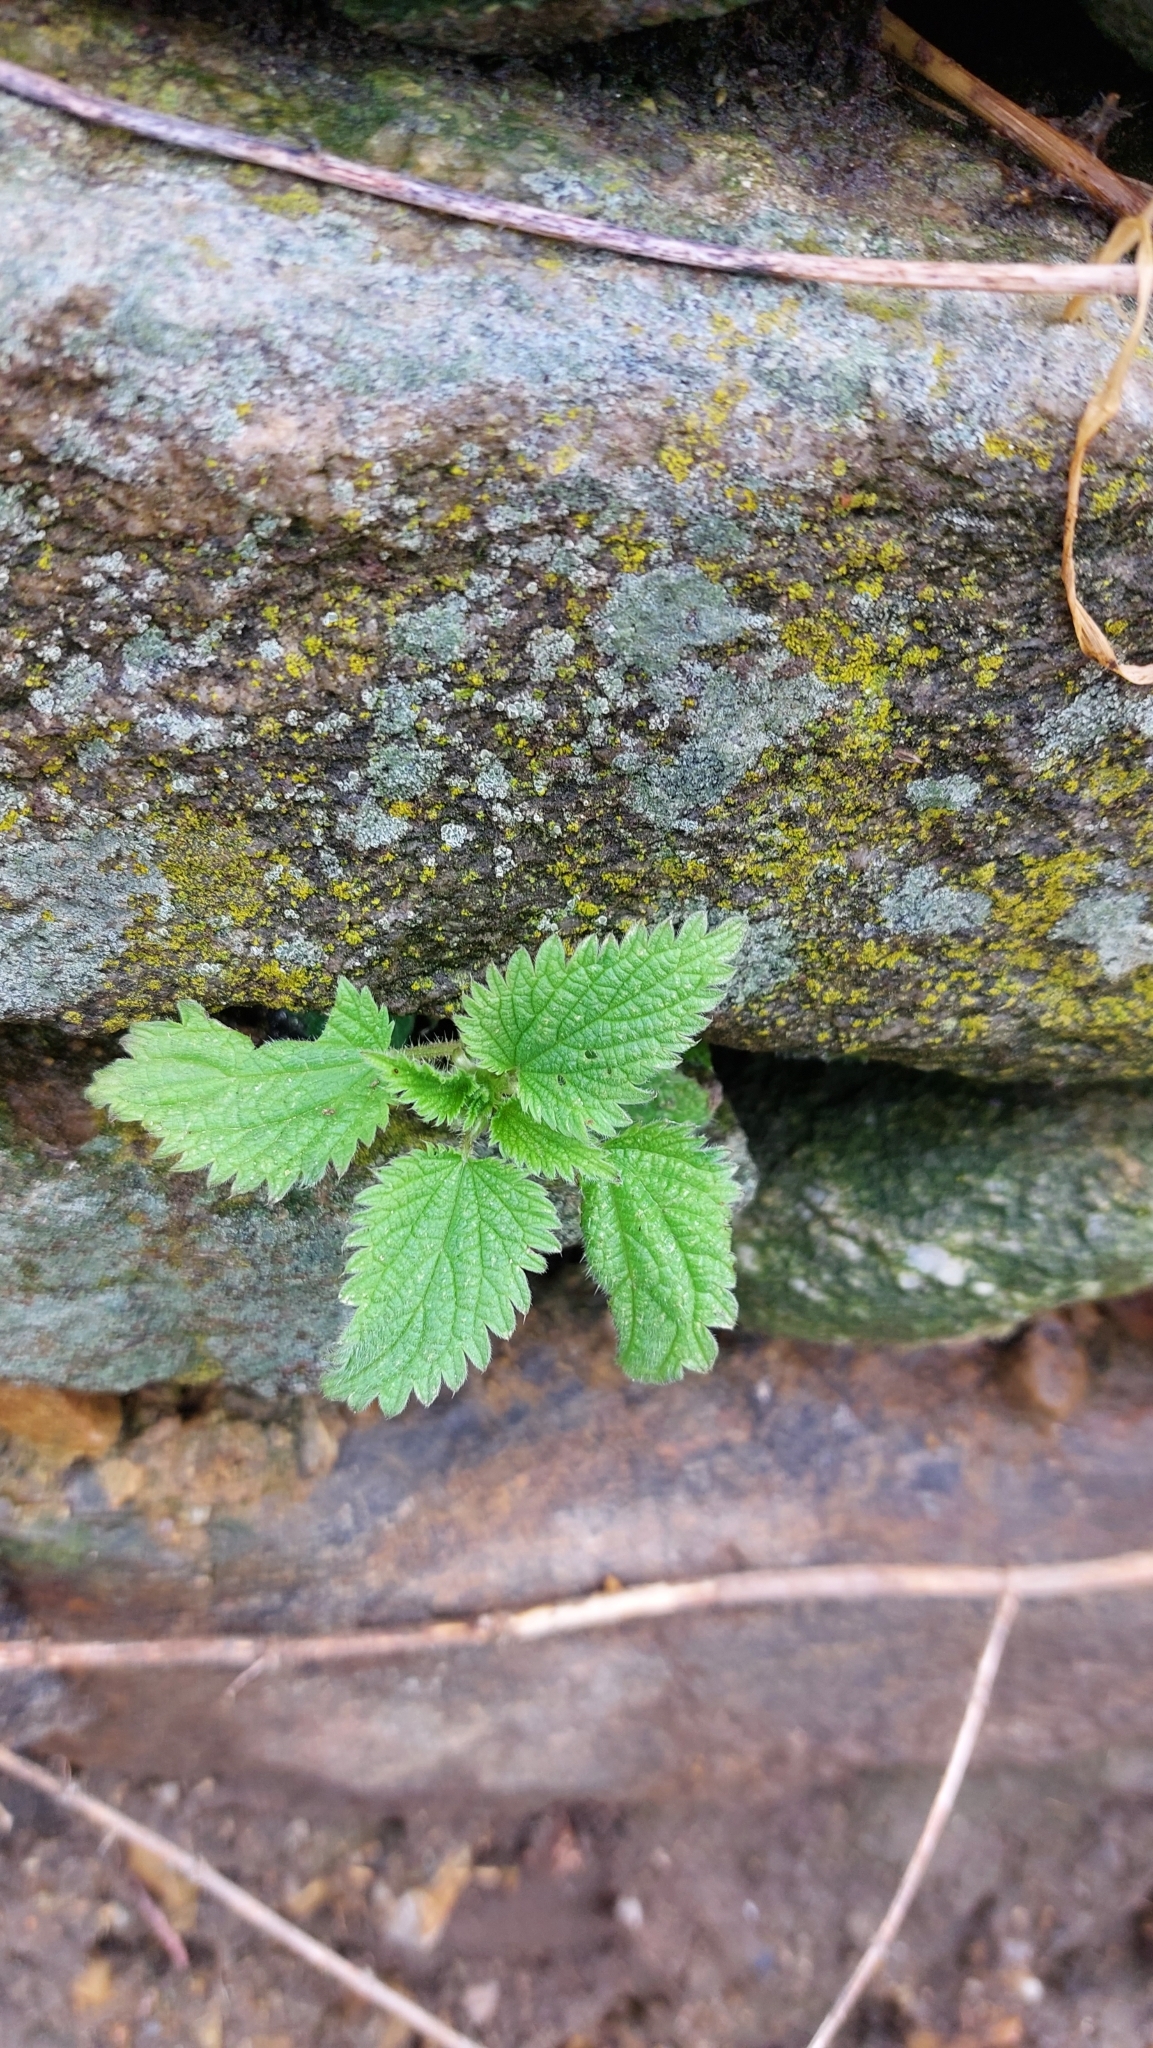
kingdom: Plantae
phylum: Tracheophyta
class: Magnoliopsida
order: Rosales
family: Urticaceae
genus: Urtica
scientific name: Urtica dioica
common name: Common nettle
